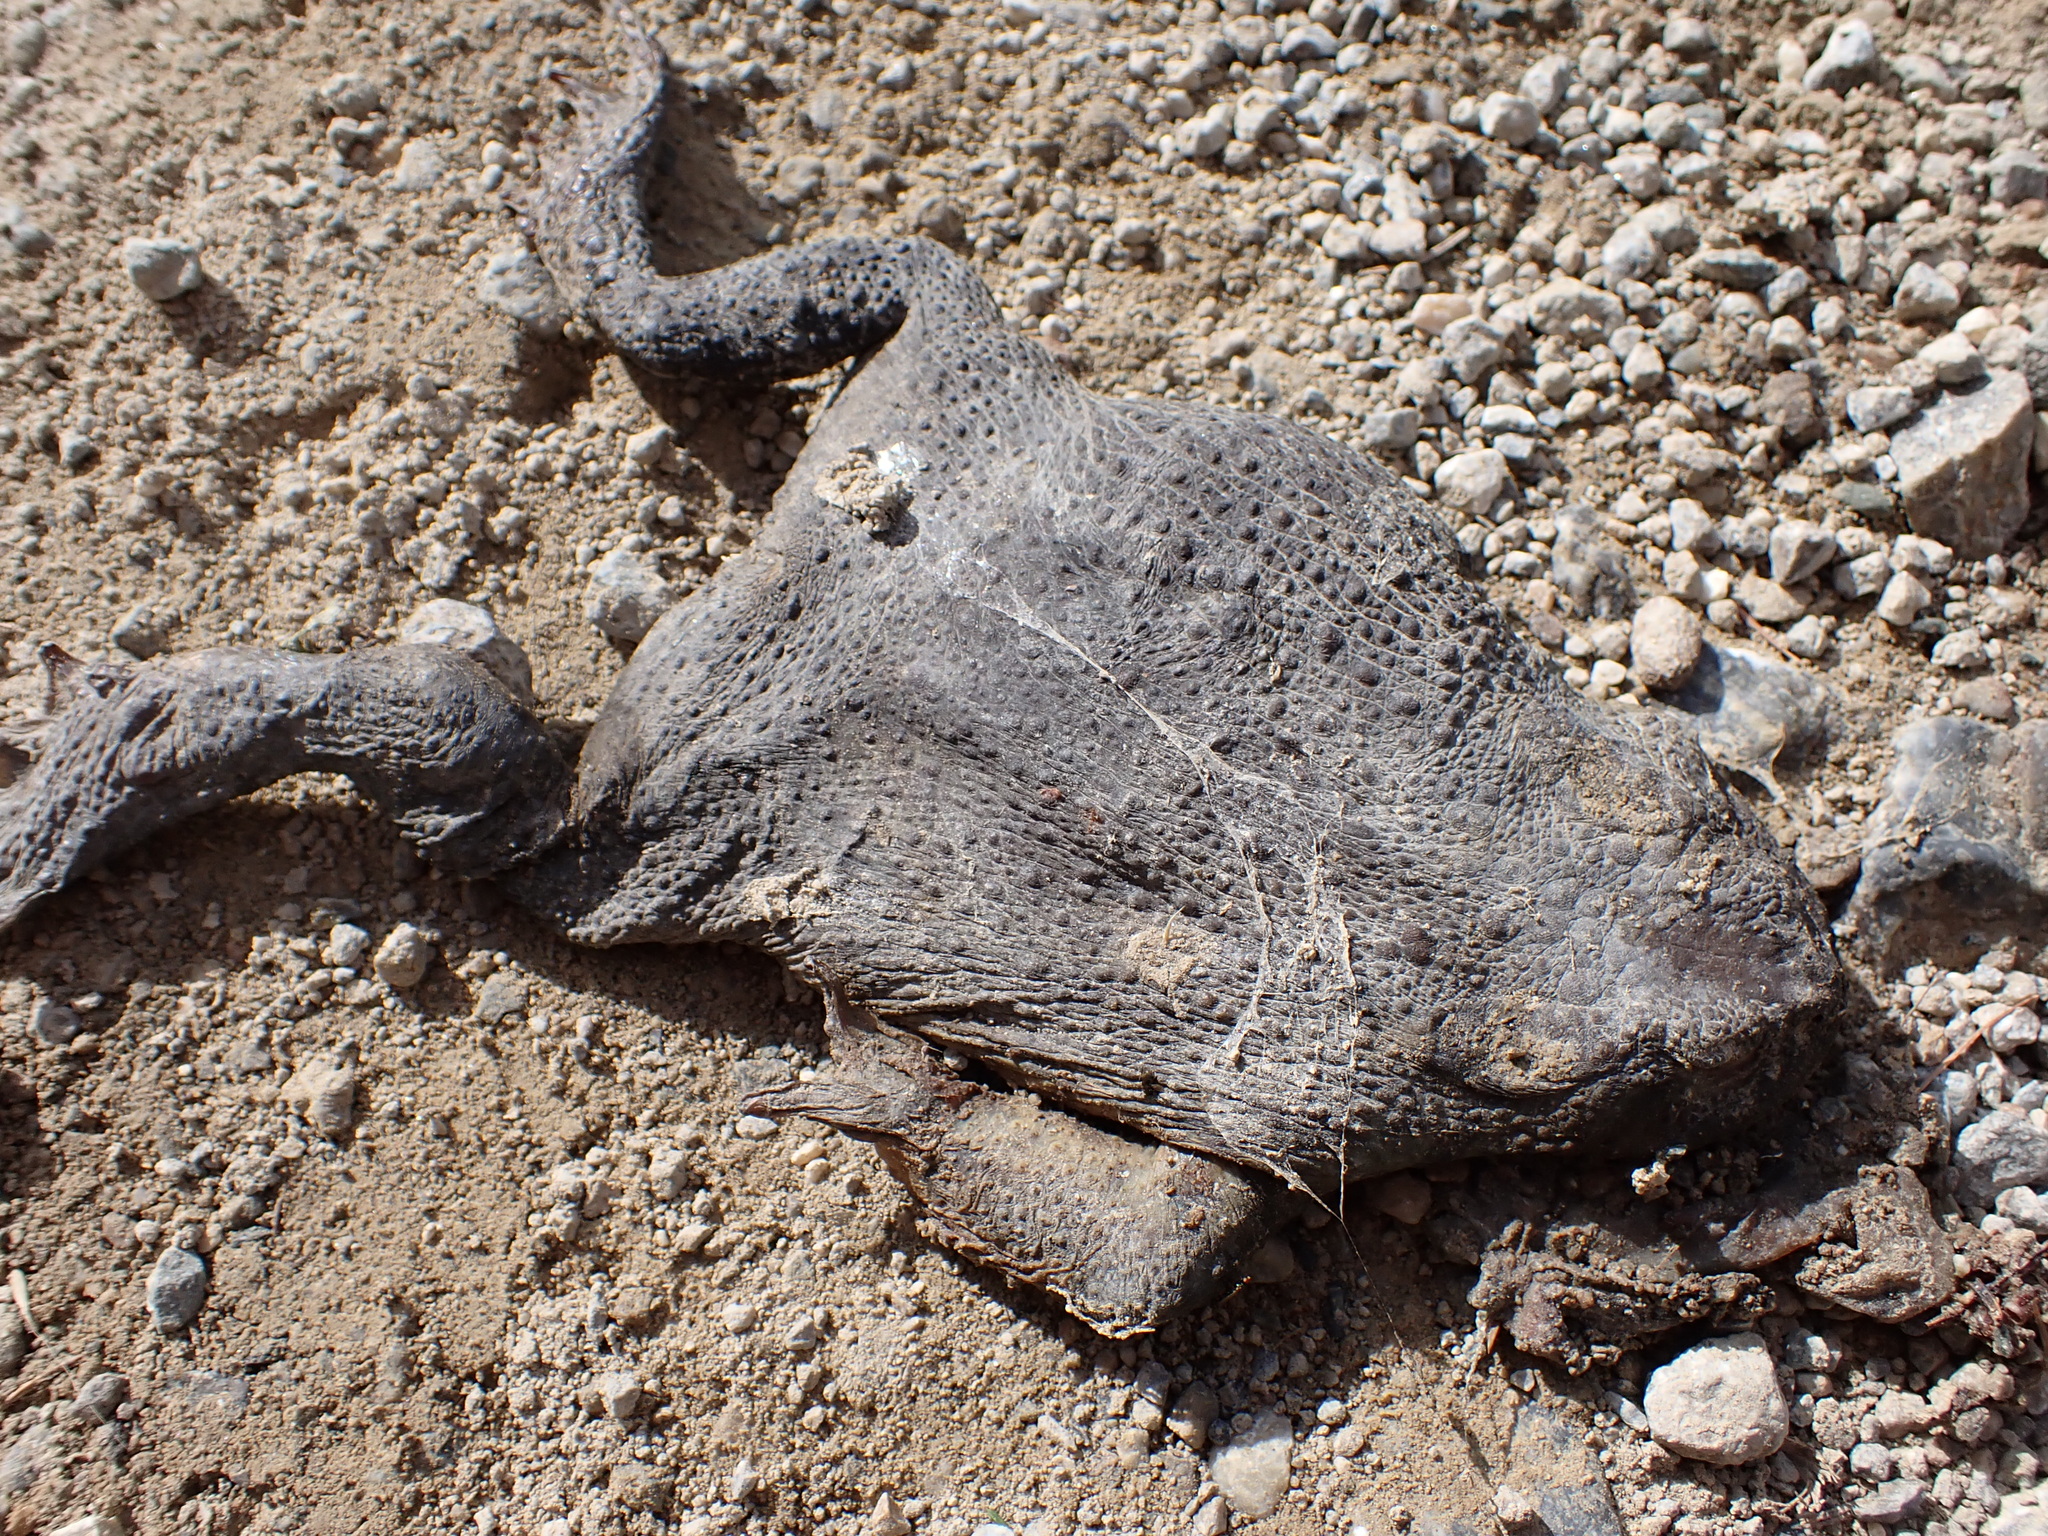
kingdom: Animalia
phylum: Chordata
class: Amphibia
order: Anura
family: Bufonidae
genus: Bufo
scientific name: Bufo bufo
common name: Common toad
